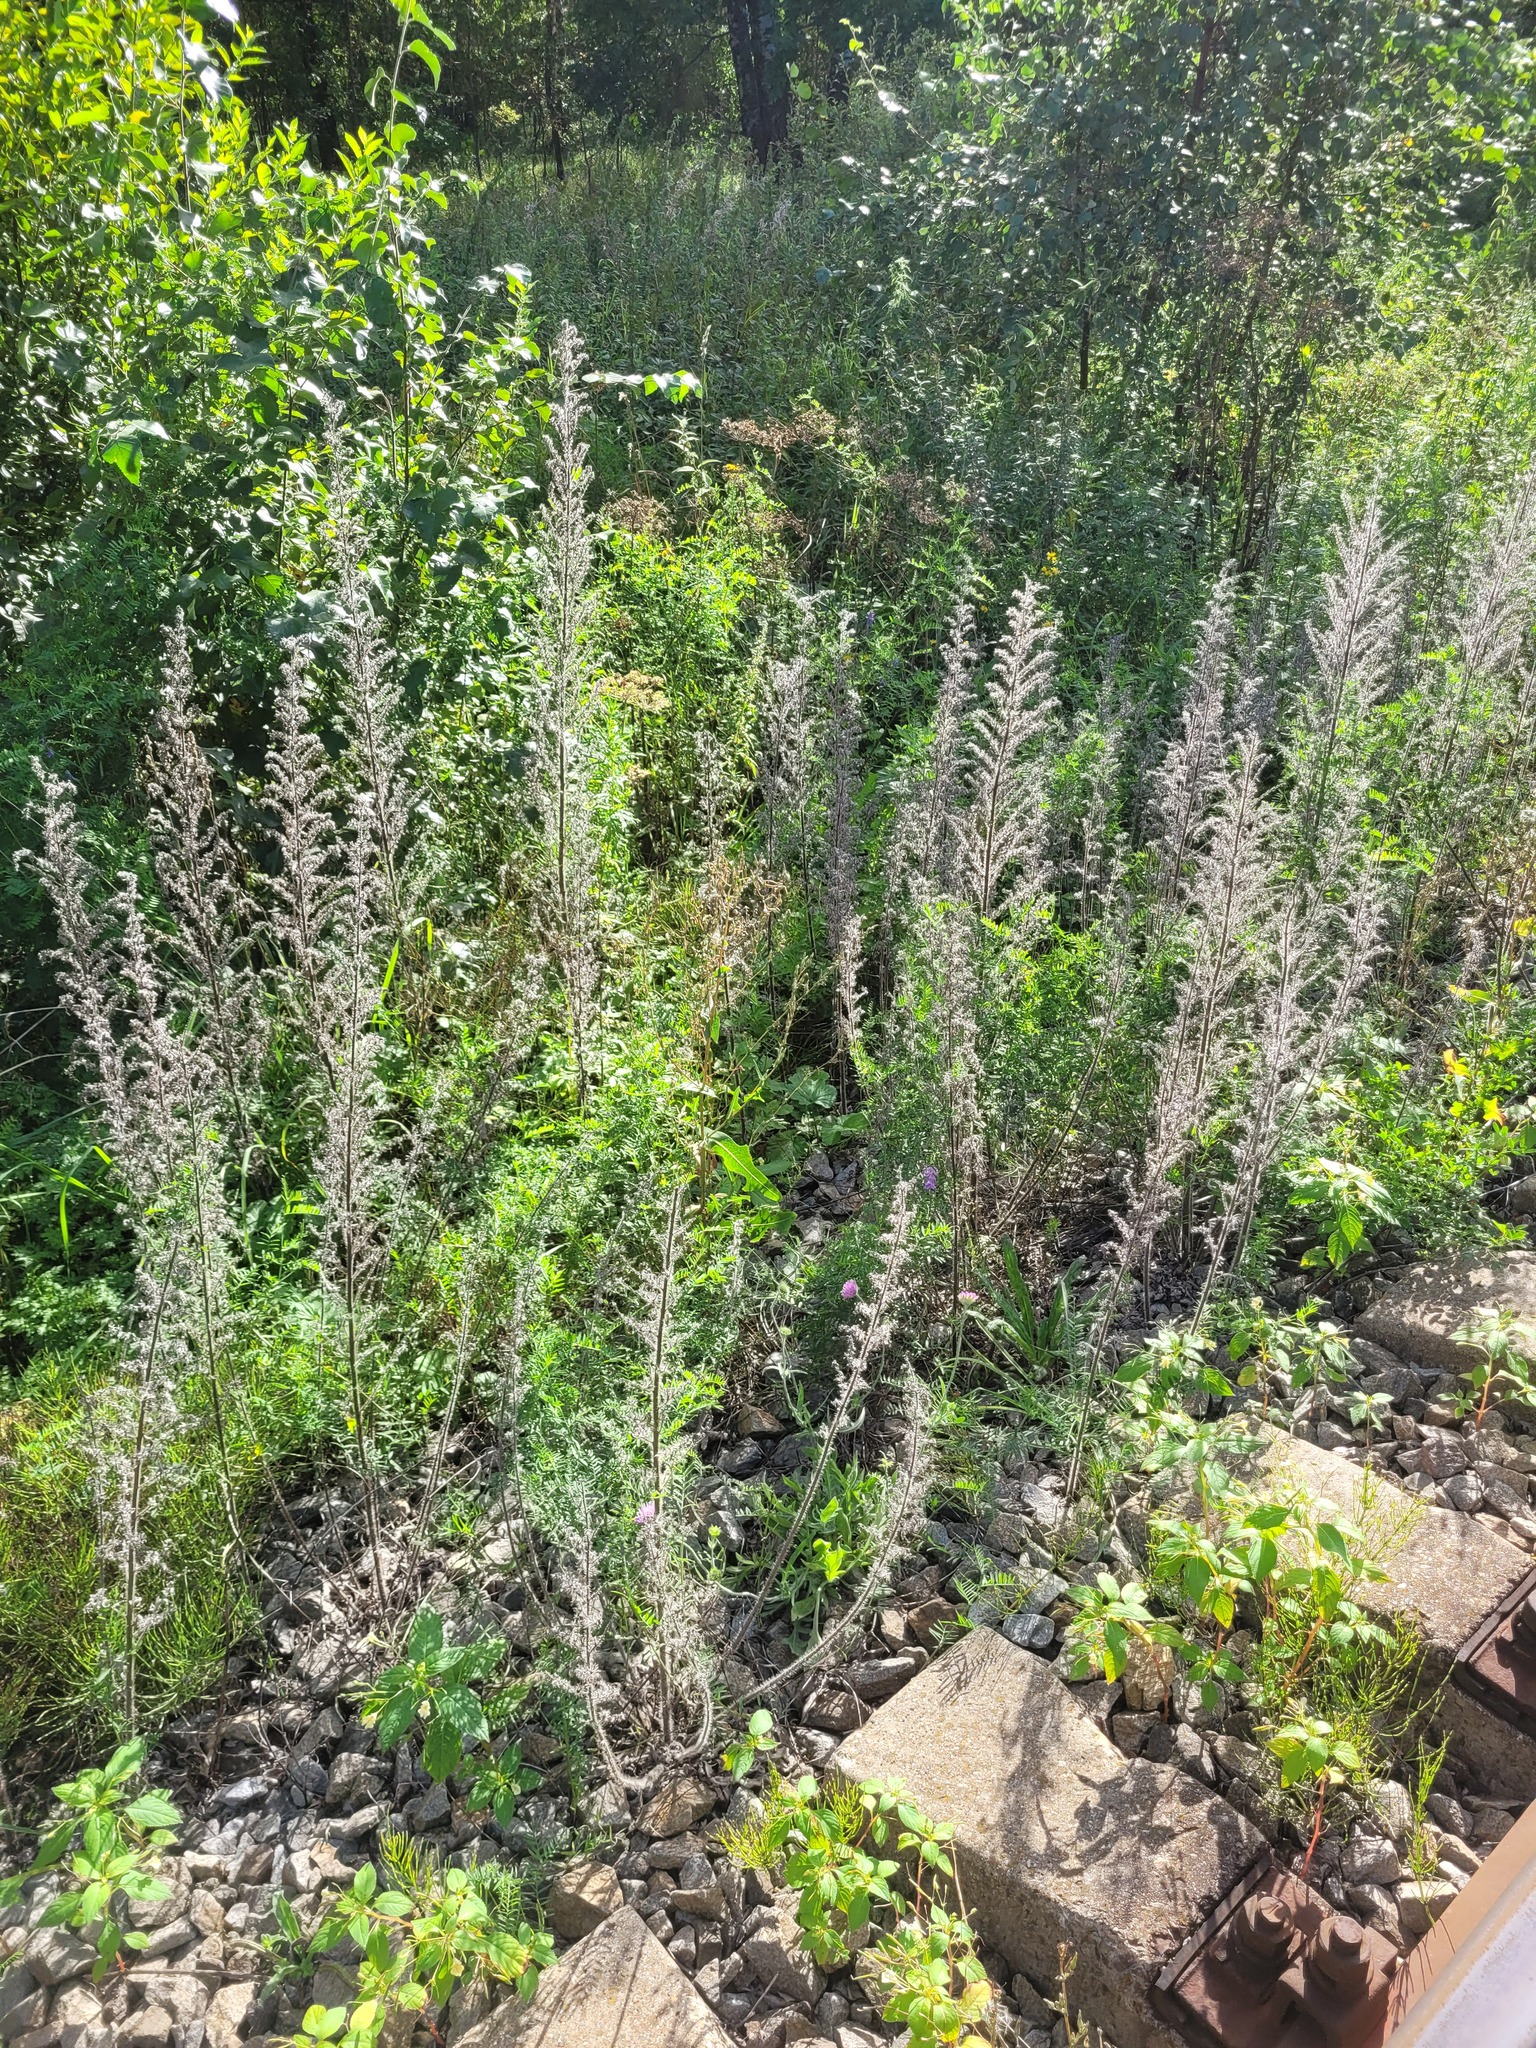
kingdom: Plantae
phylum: Tracheophyta
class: Magnoliopsida
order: Boraginales
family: Boraginaceae
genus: Echium
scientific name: Echium vulgare
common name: Common viper's bugloss
